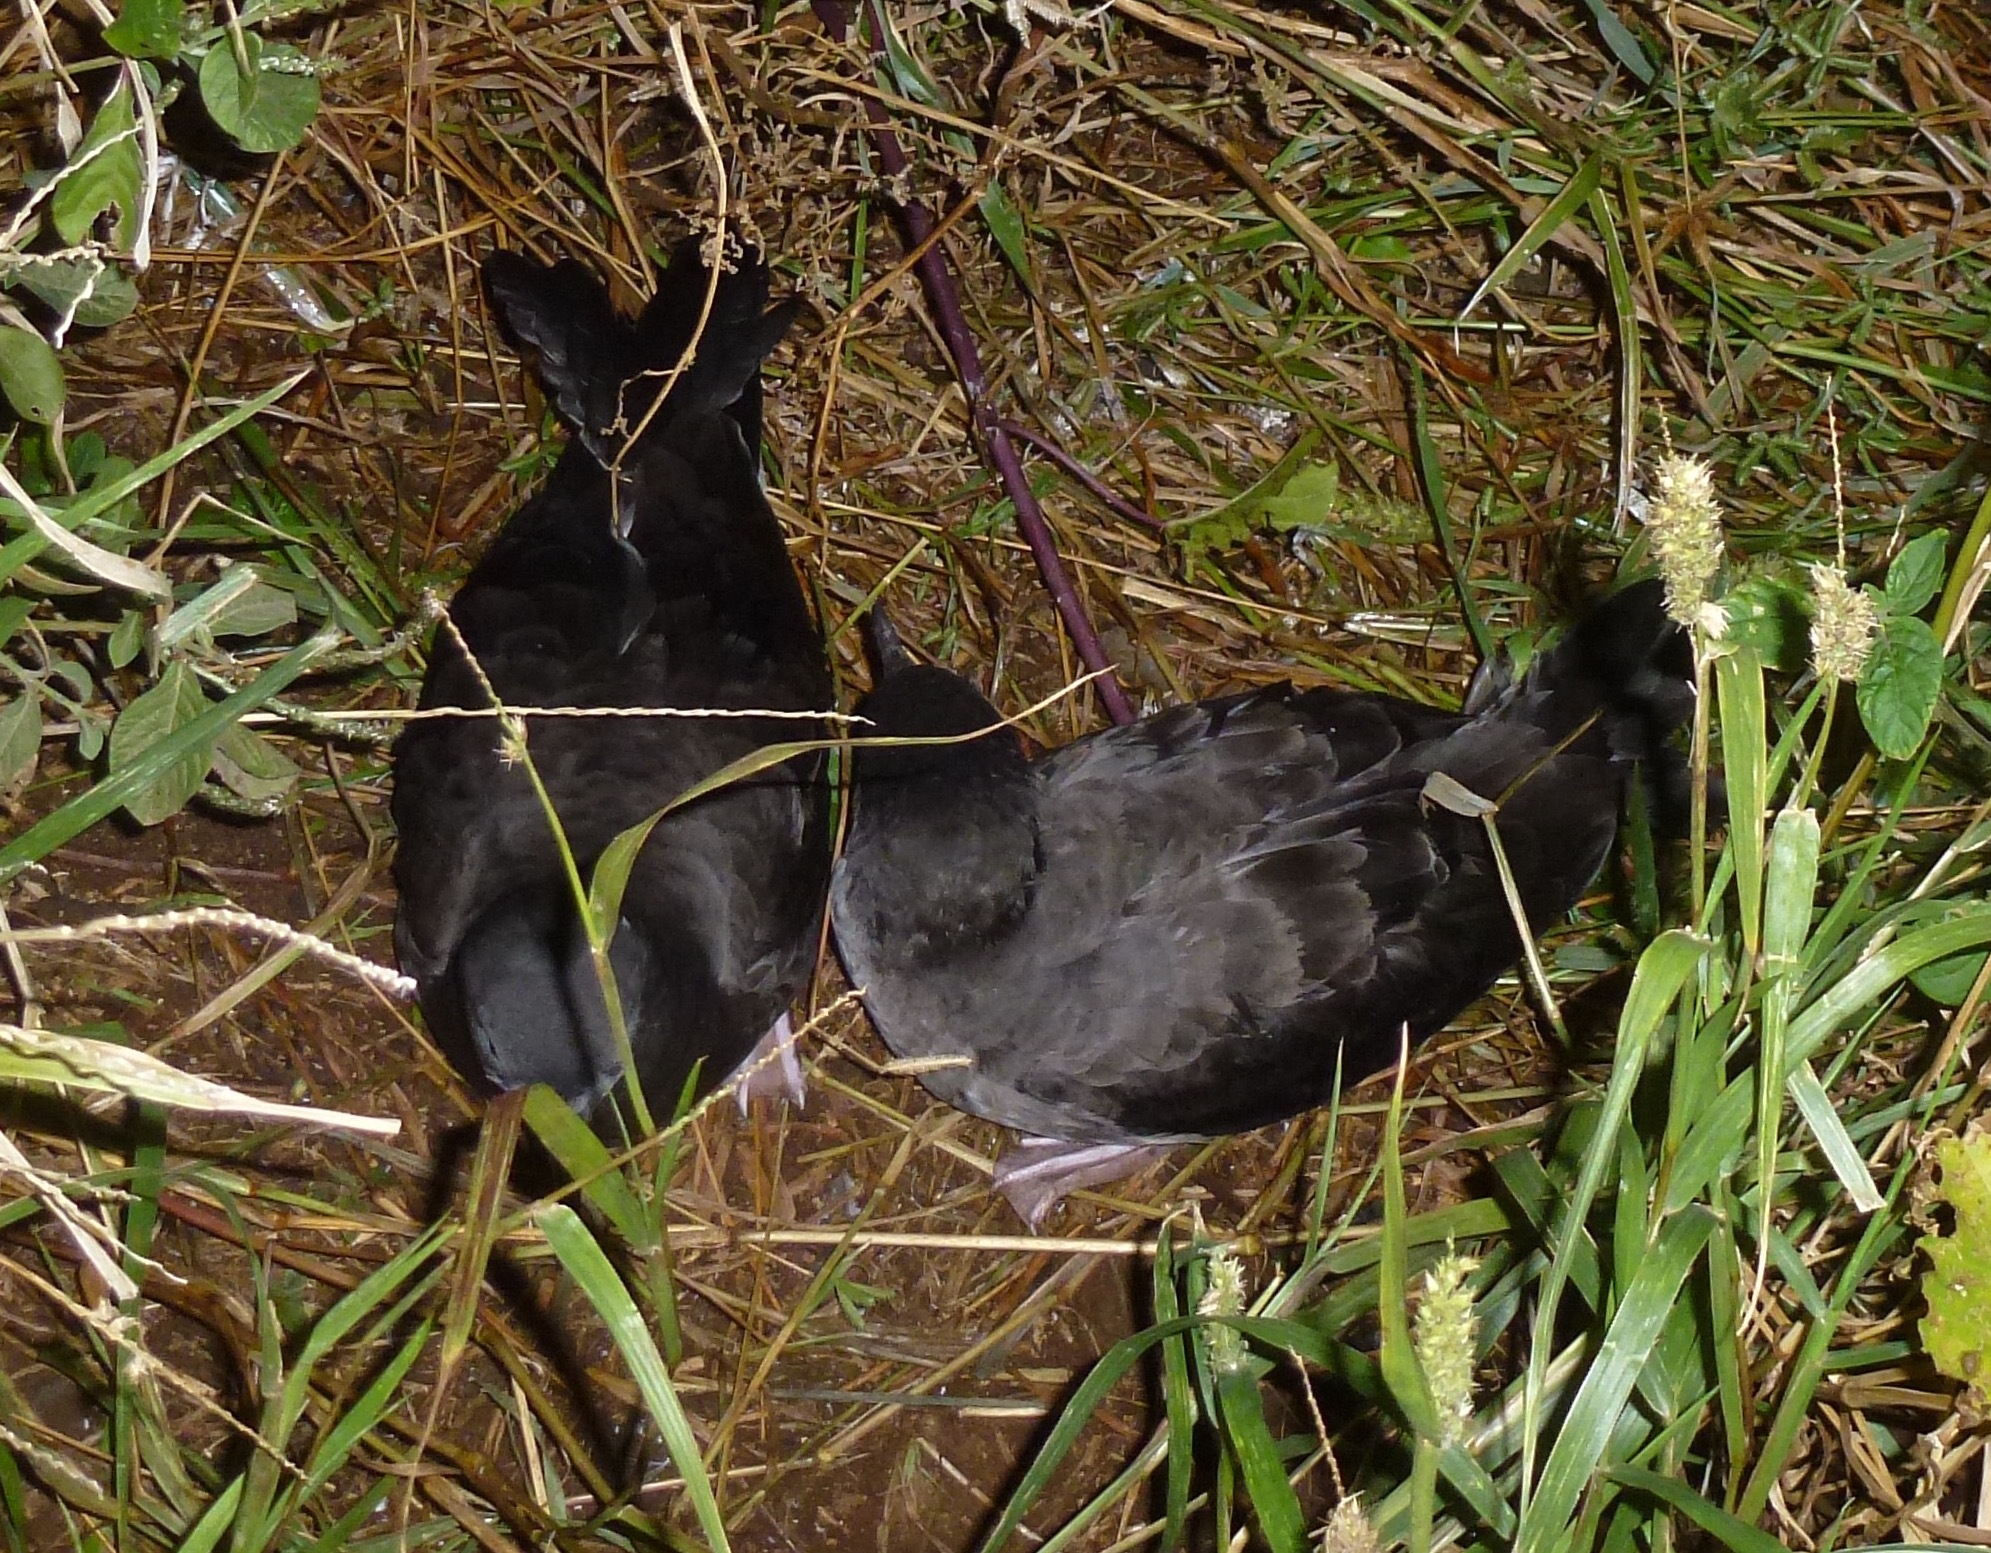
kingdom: Animalia
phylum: Chordata
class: Aves
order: Procellariiformes
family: Procellariidae
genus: Puffinus
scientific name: Puffinus carneipes
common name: Flesh-footed shearwater
